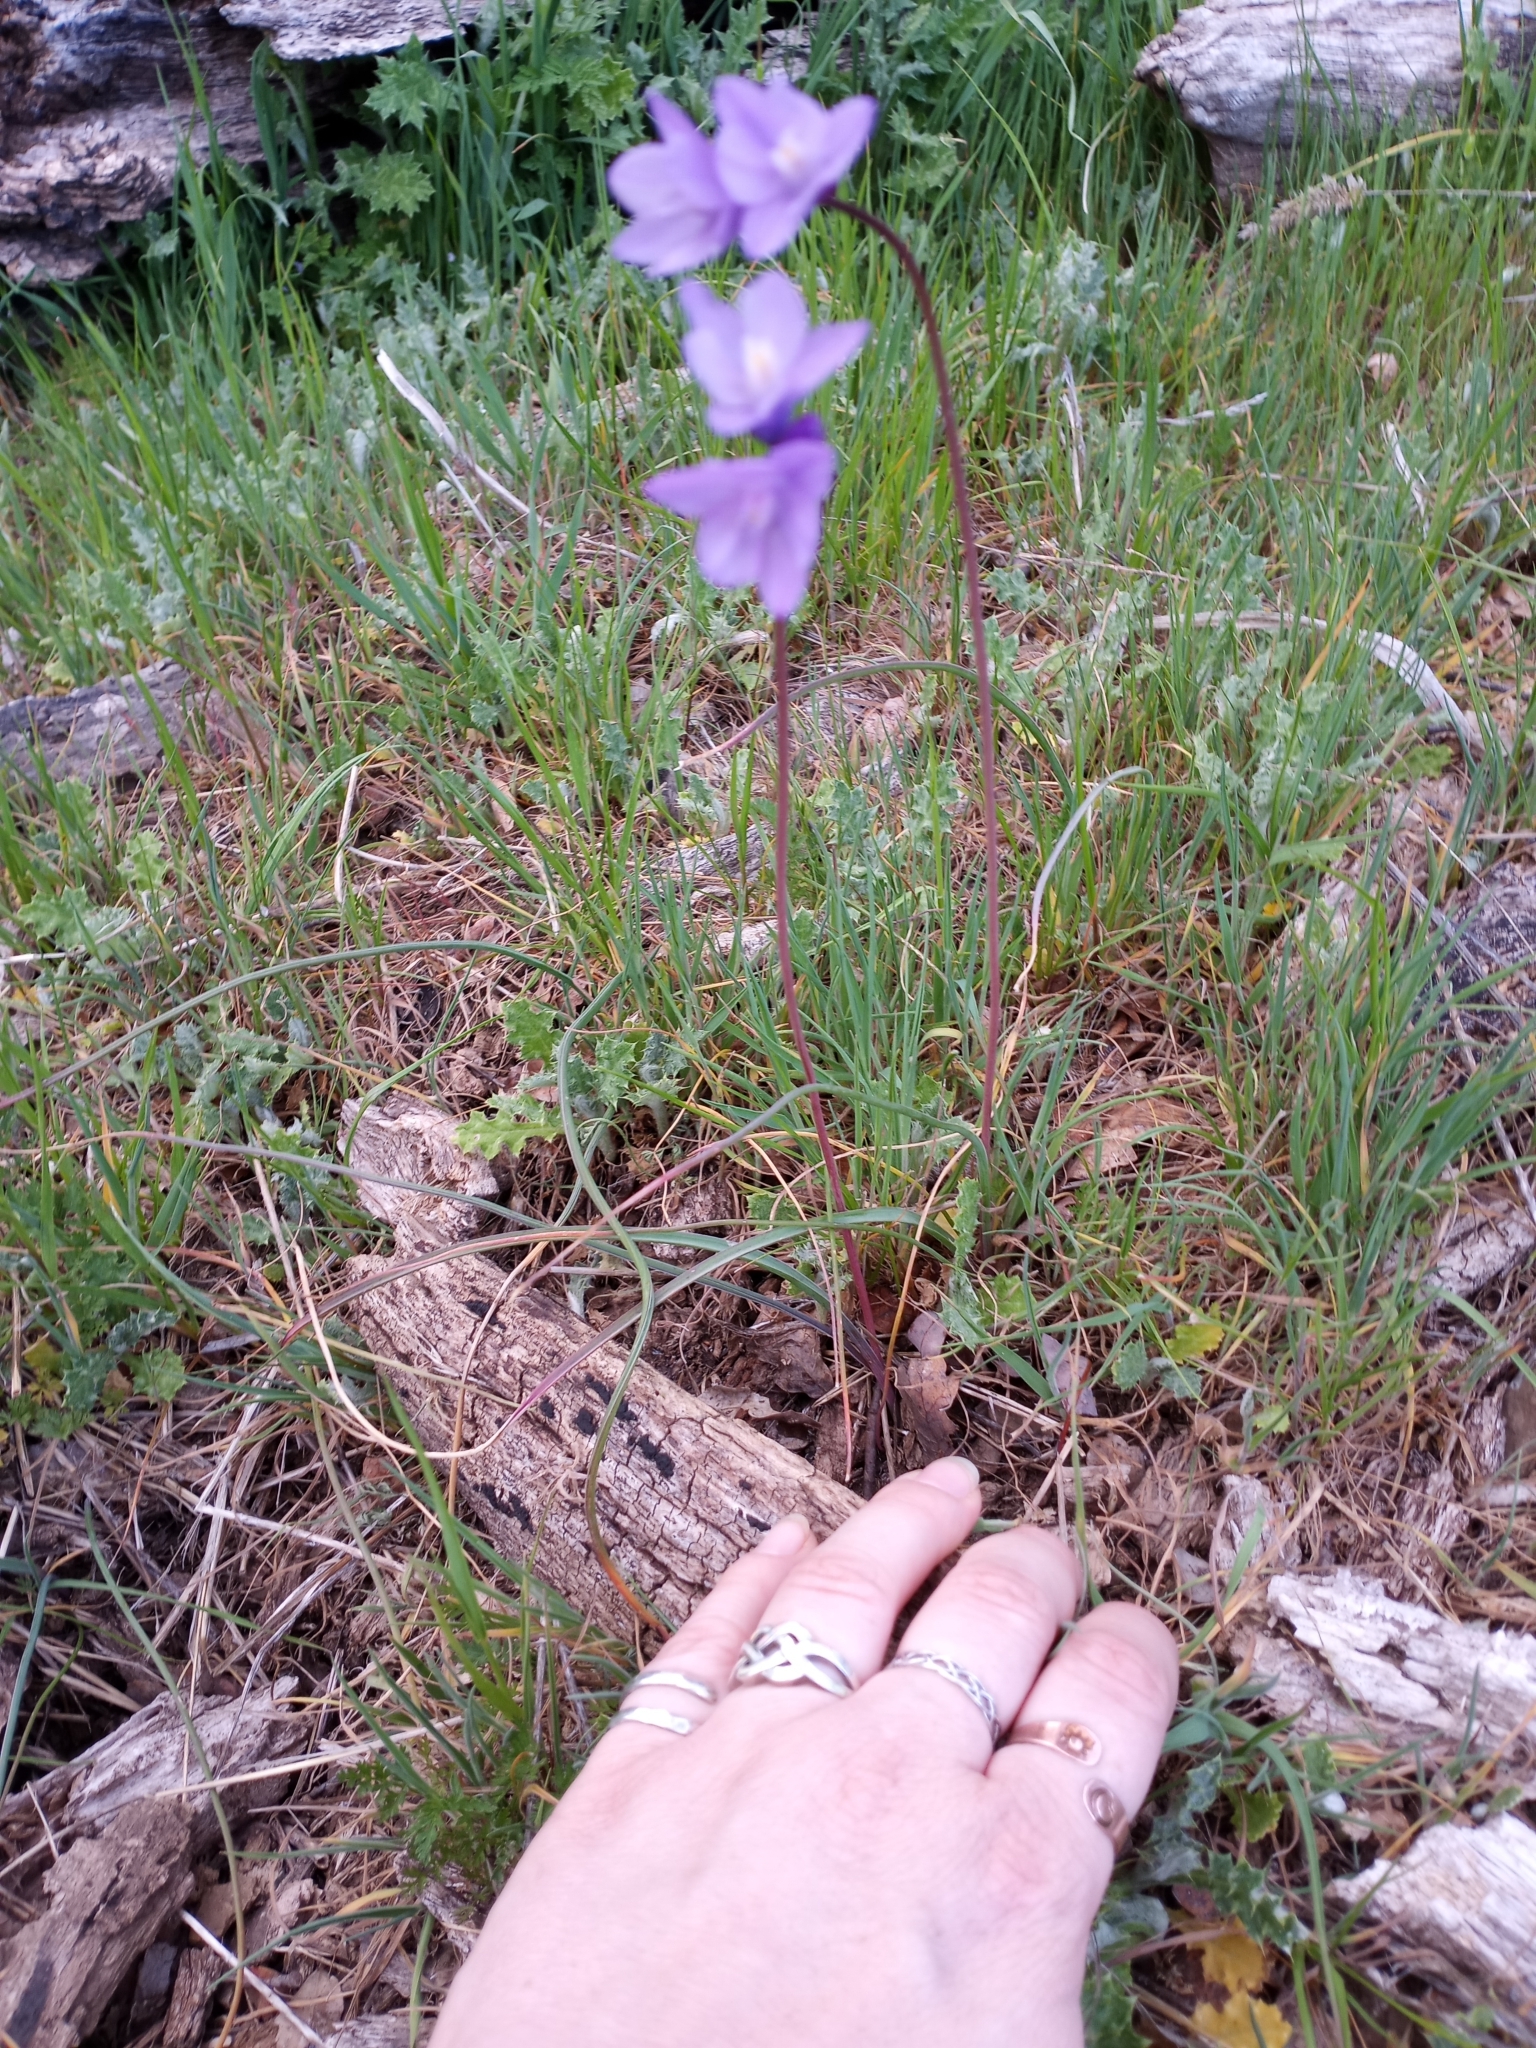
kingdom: Plantae
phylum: Tracheophyta
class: Liliopsida
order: Asparagales
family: Asparagaceae
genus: Dipterostemon
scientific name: Dipterostemon capitatus
